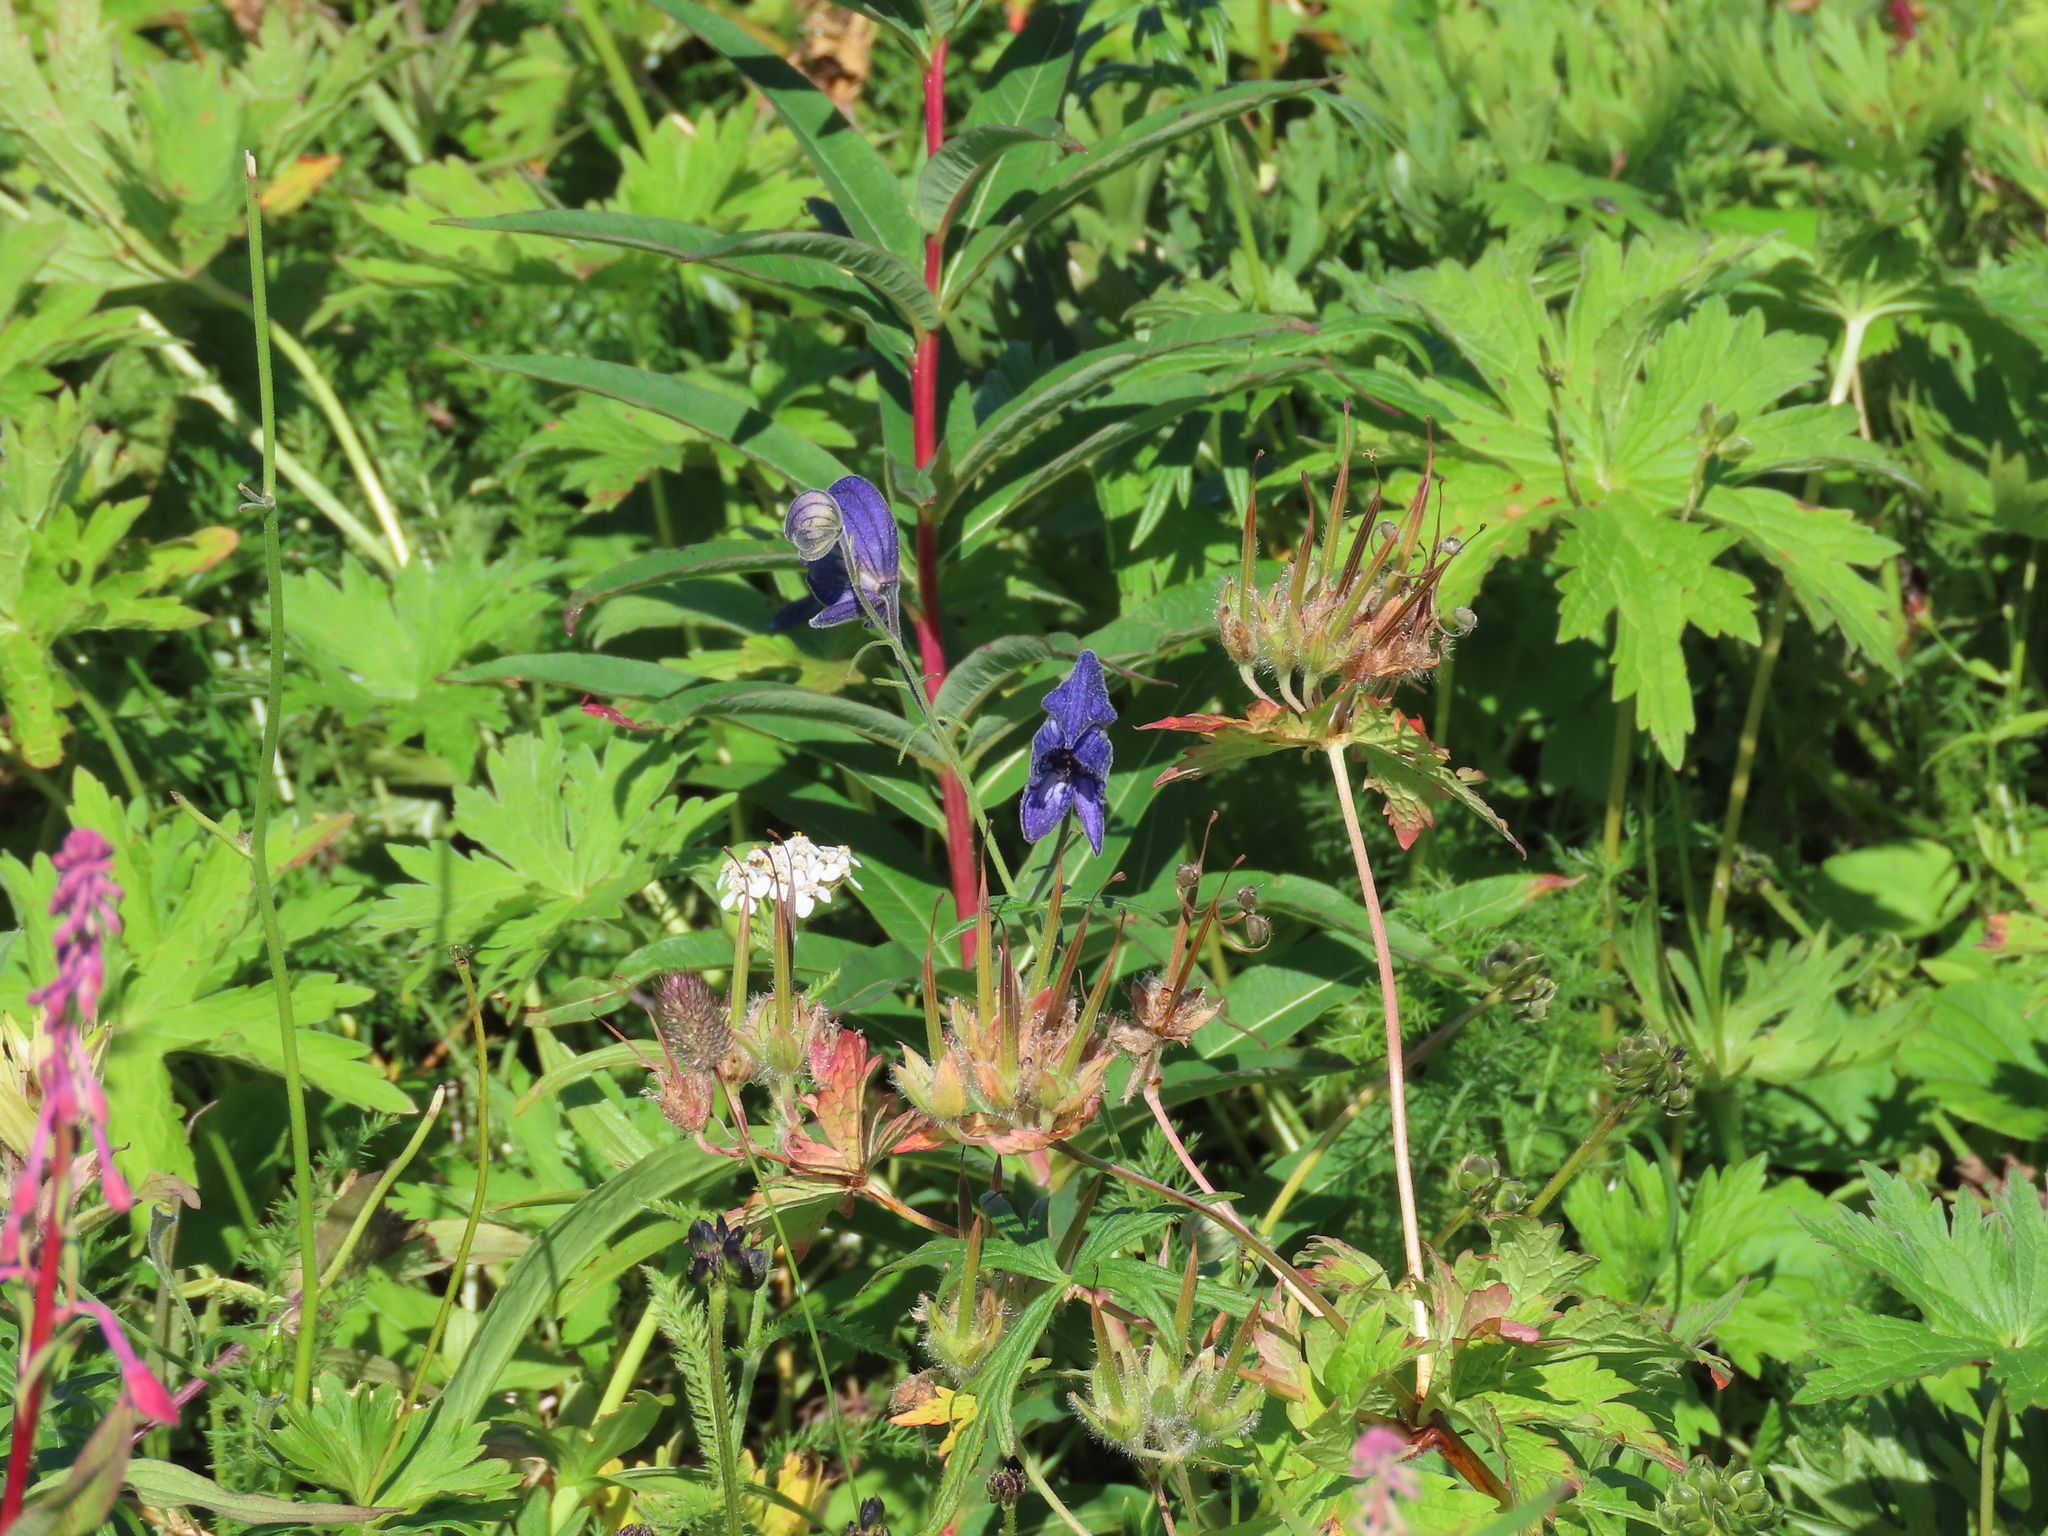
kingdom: Plantae
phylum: Tracheophyta
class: Magnoliopsida
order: Ranunculales
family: Ranunculaceae
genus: Aconitum
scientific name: Aconitum delphiniifolium
